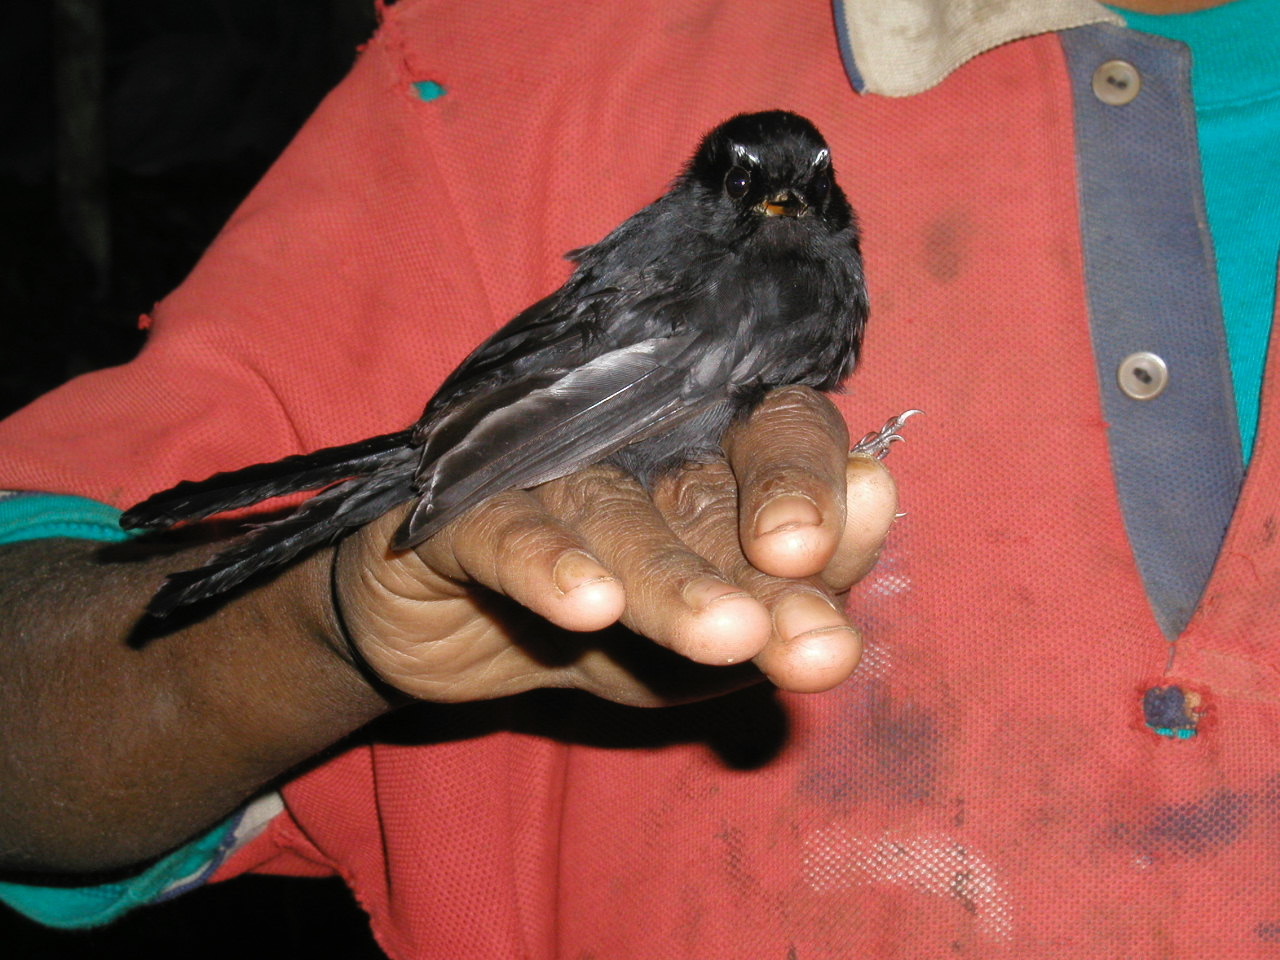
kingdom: Animalia
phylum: Chordata
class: Aves
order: Passeriformes
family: Rhipiduridae
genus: Rhipidura
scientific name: Rhipidura atra
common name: Black fantail
